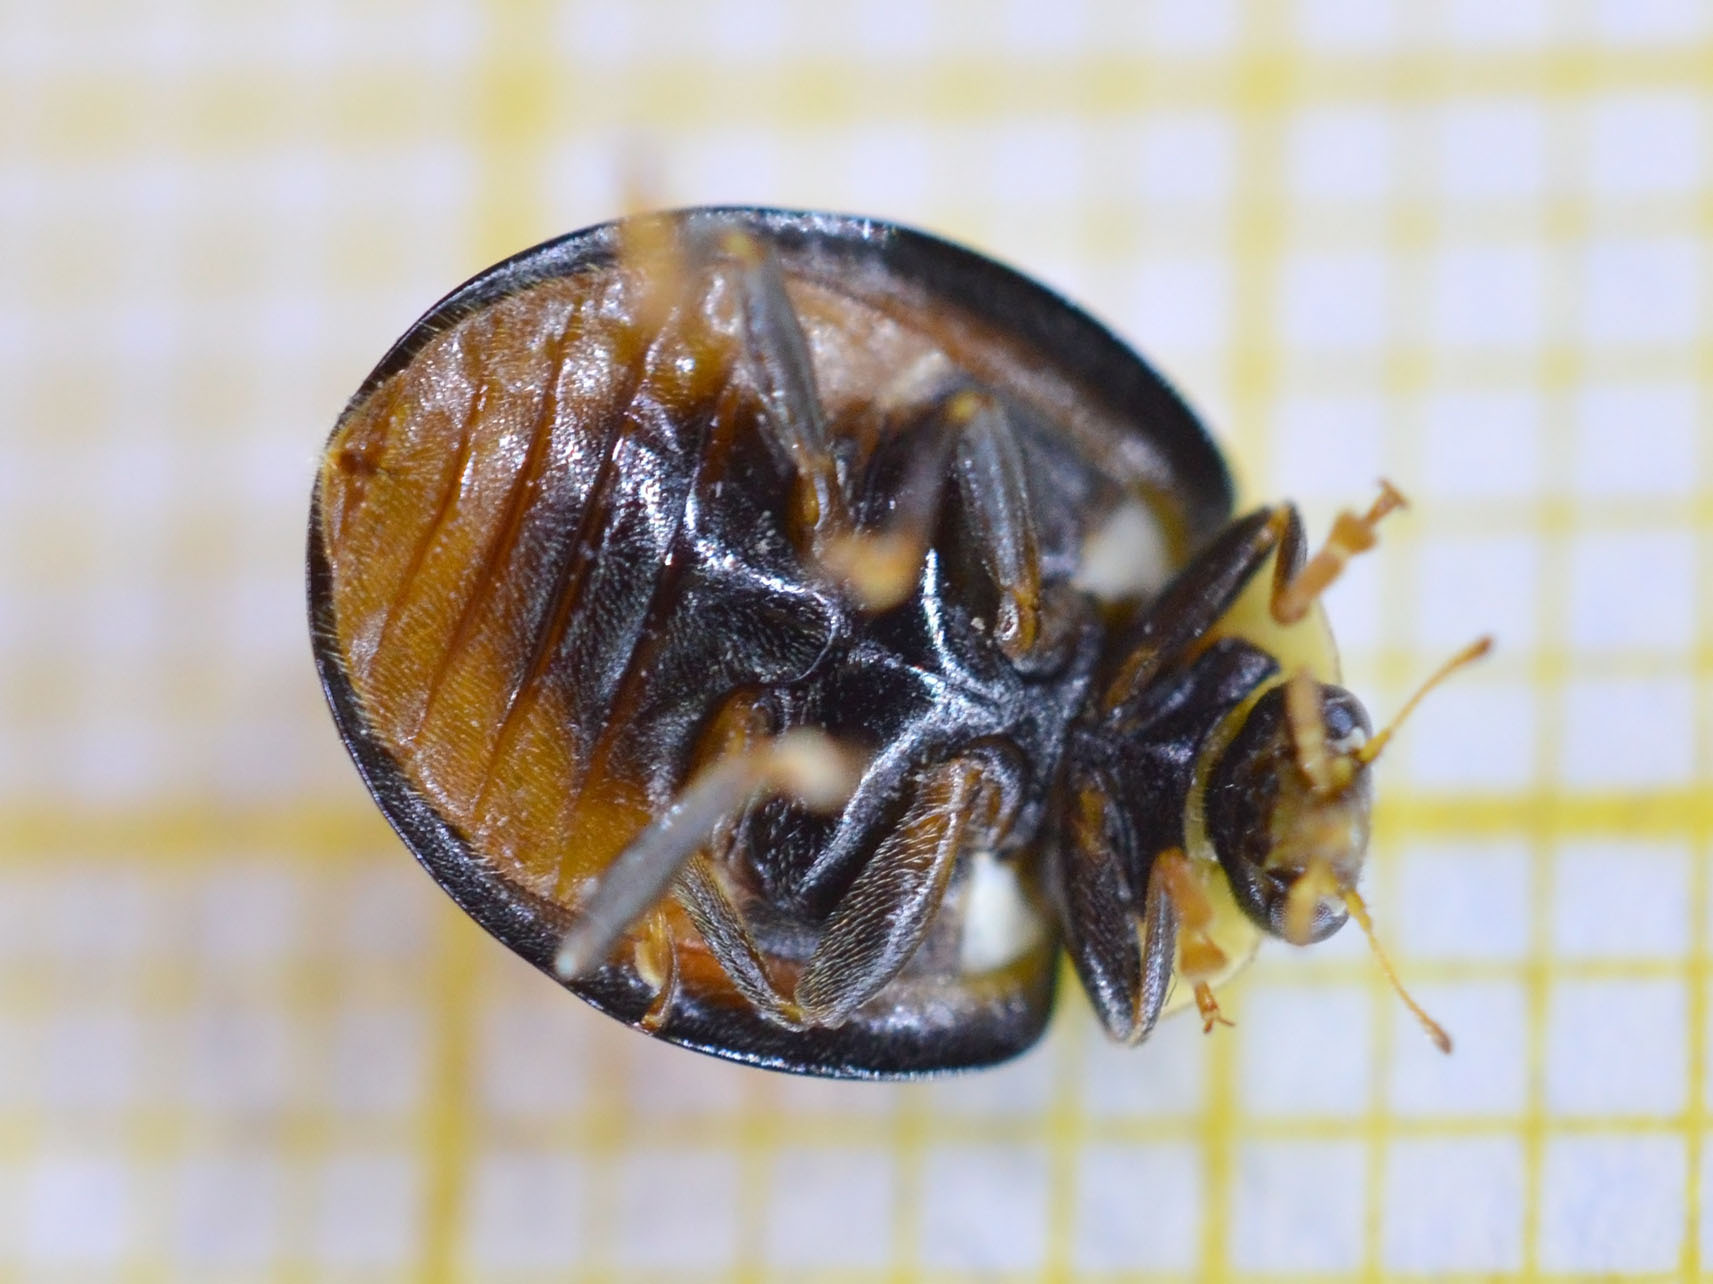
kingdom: Animalia
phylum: Arthropoda
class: Insecta
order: Coleoptera
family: Coccinellidae
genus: Harmonia
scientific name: Harmonia axyridis
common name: Harlequin ladybird
